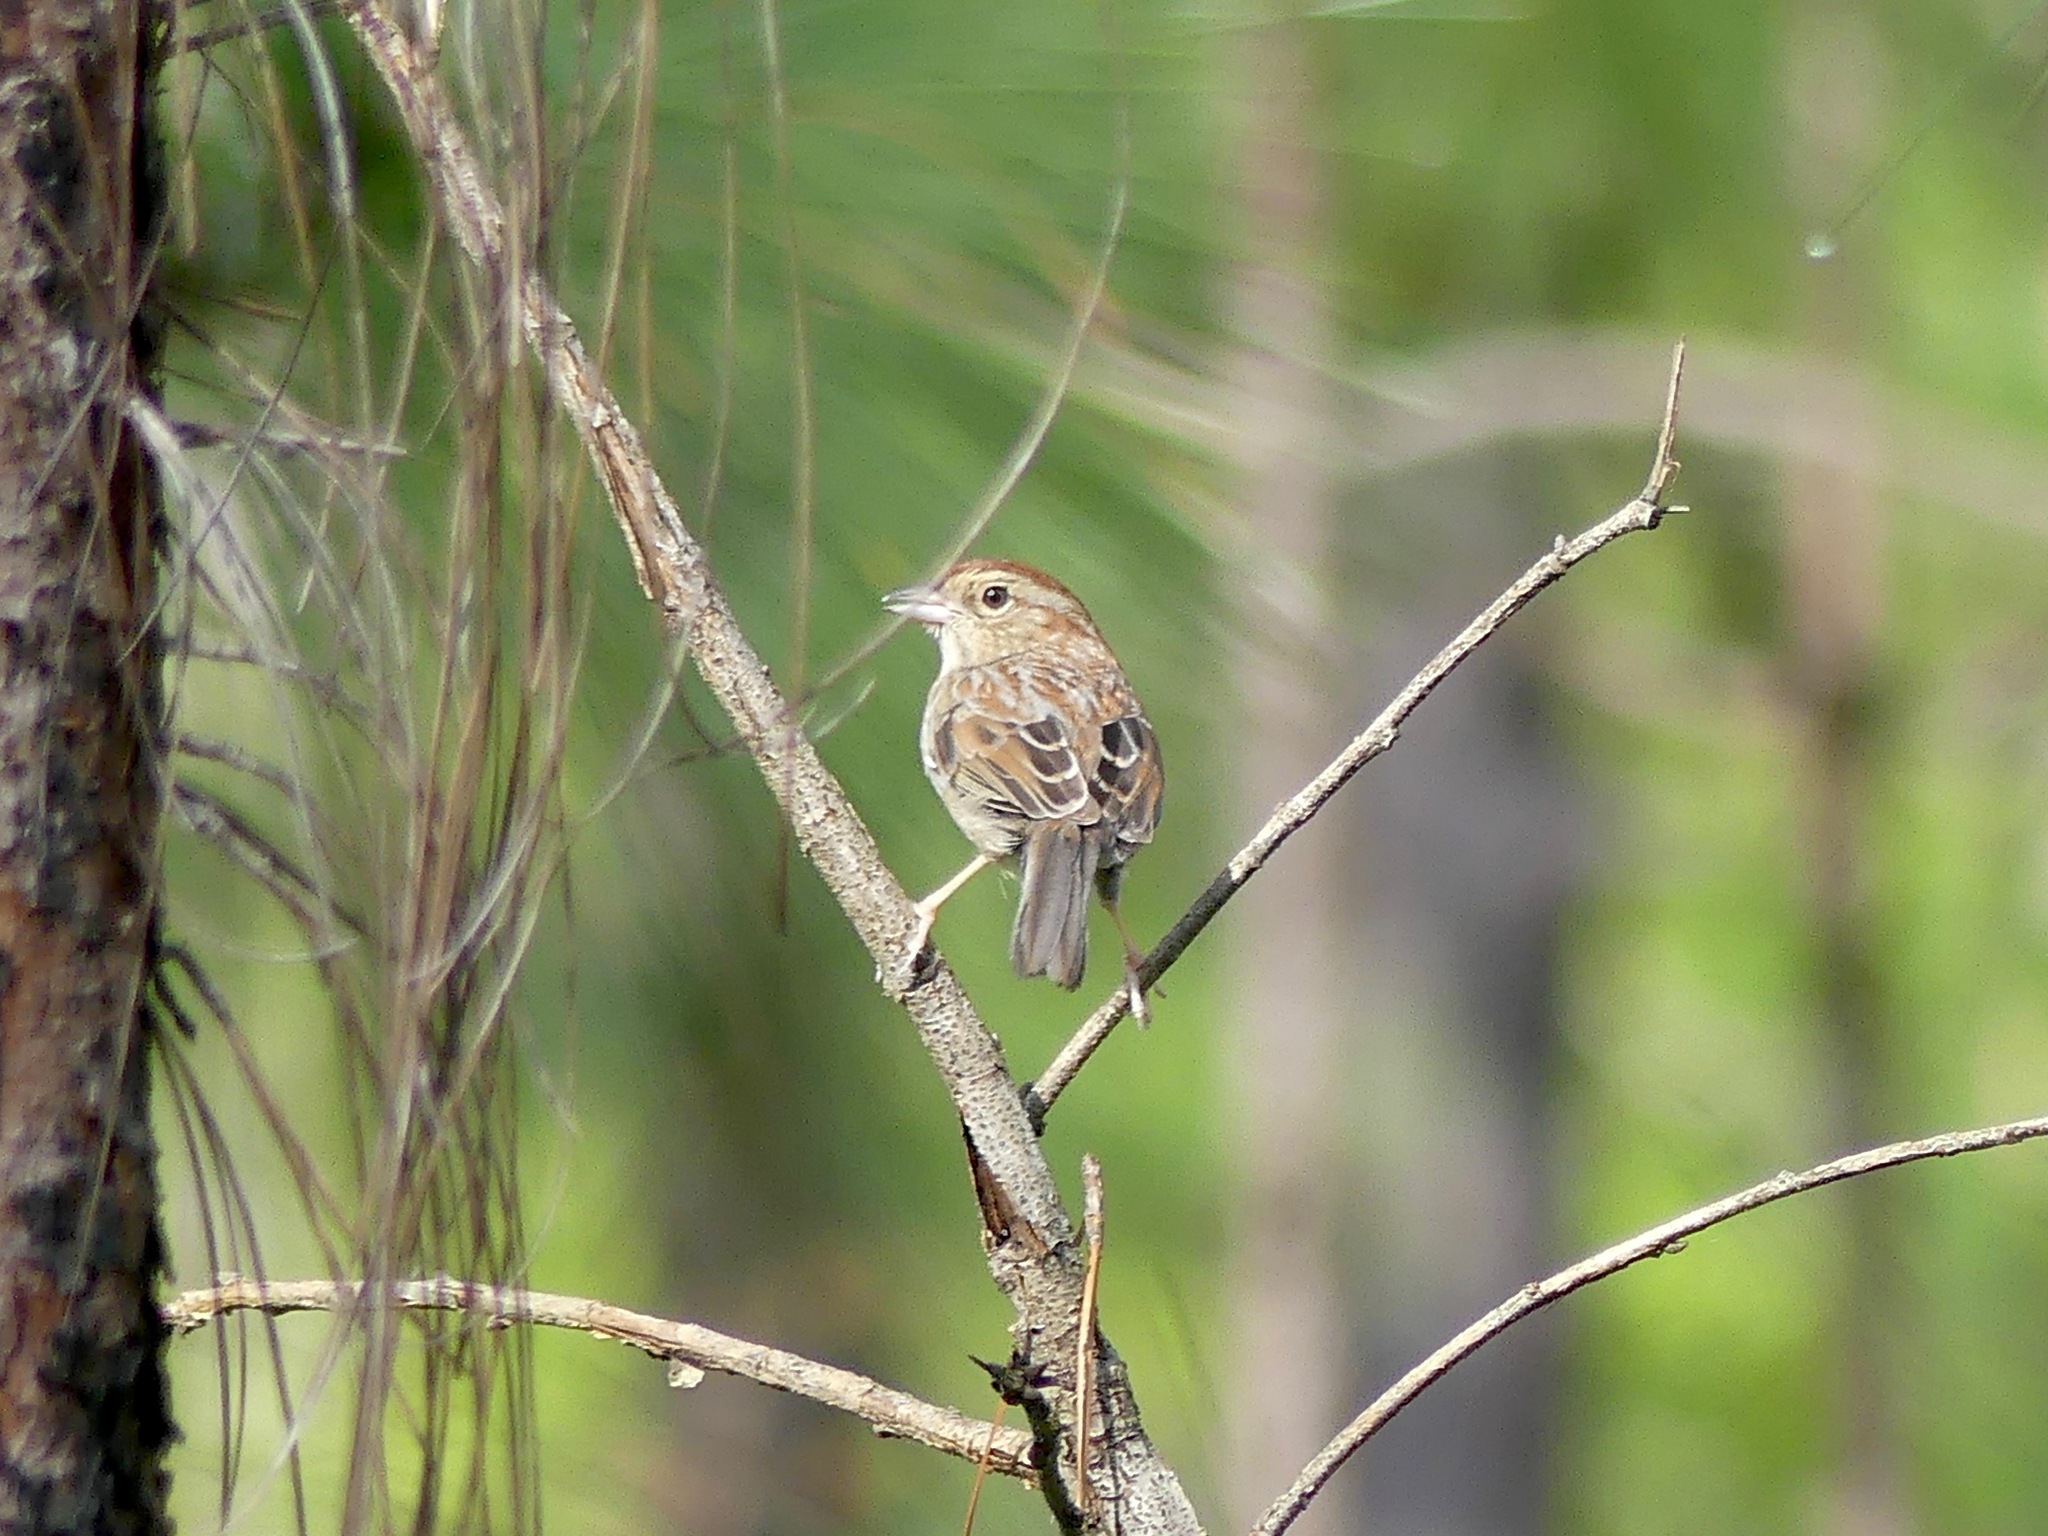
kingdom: Animalia
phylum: Chordata
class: Aves
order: Passeriformes
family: Passerellidae
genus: Peucaea
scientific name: Peucaea aestivalis
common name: Bachman's sparrow
